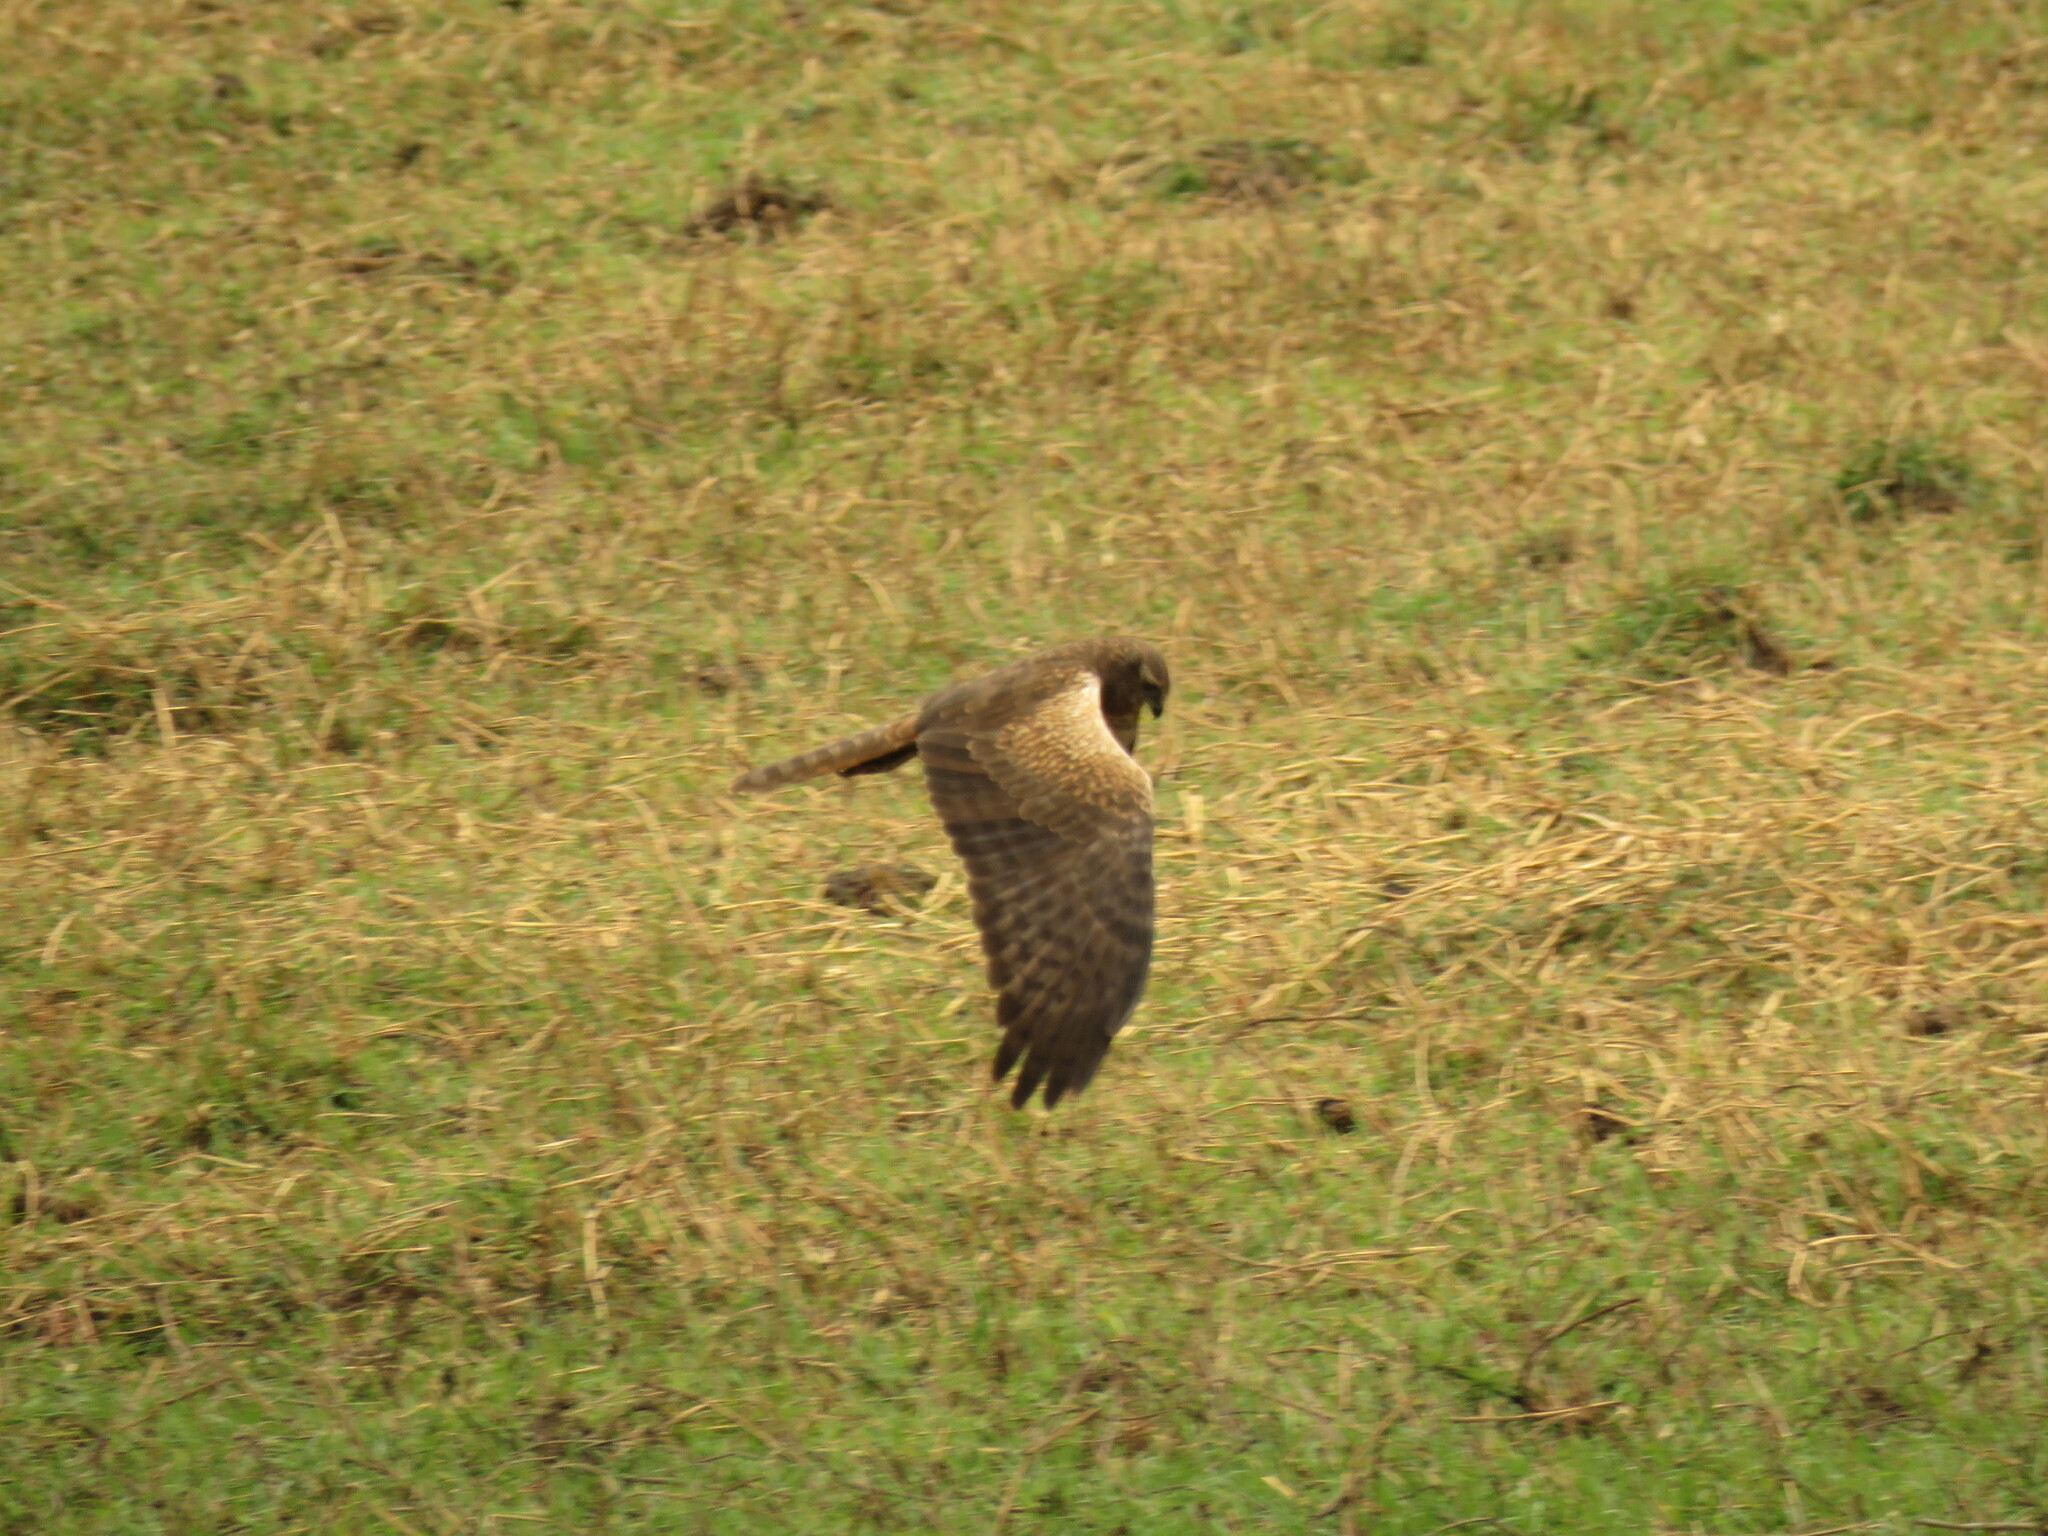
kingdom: Animalia
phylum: Chordata
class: Aves
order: Accipitriformes
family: Accipitridae
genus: Circus
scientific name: Circus ranivorus
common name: African marsh-harrier
